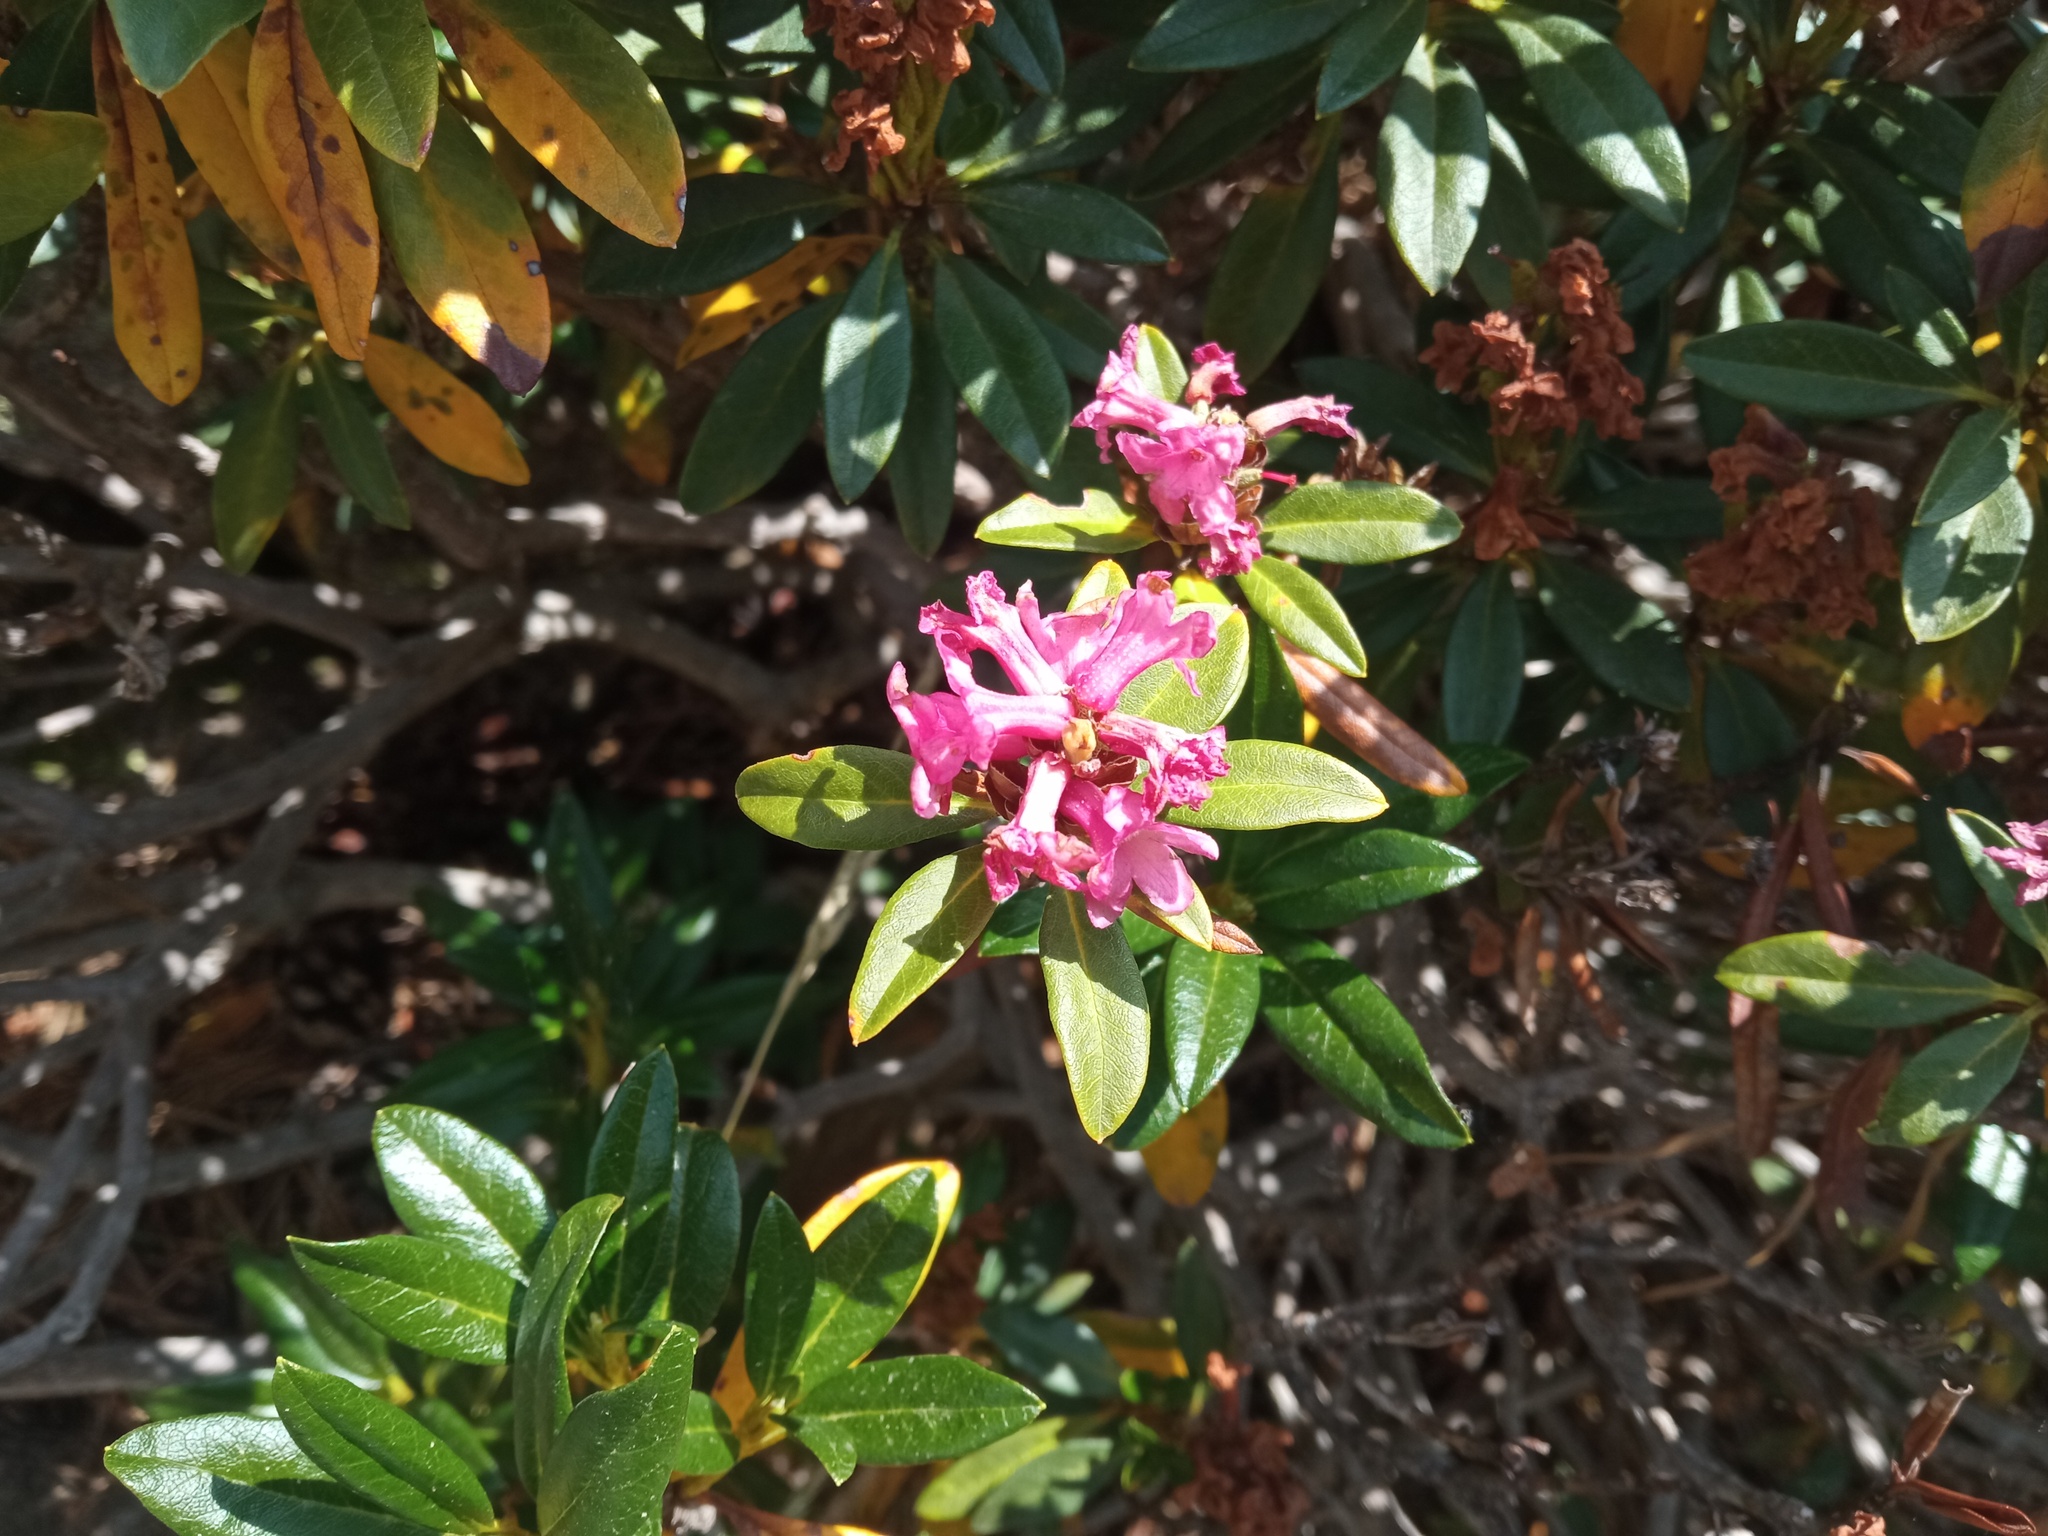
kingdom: Plantae
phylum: Tracheophyta
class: Magnoliopsida
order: Ericales
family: Ericaceae
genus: Rhododendron
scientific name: Rhododendron ferrugineum
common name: Alpenrose
